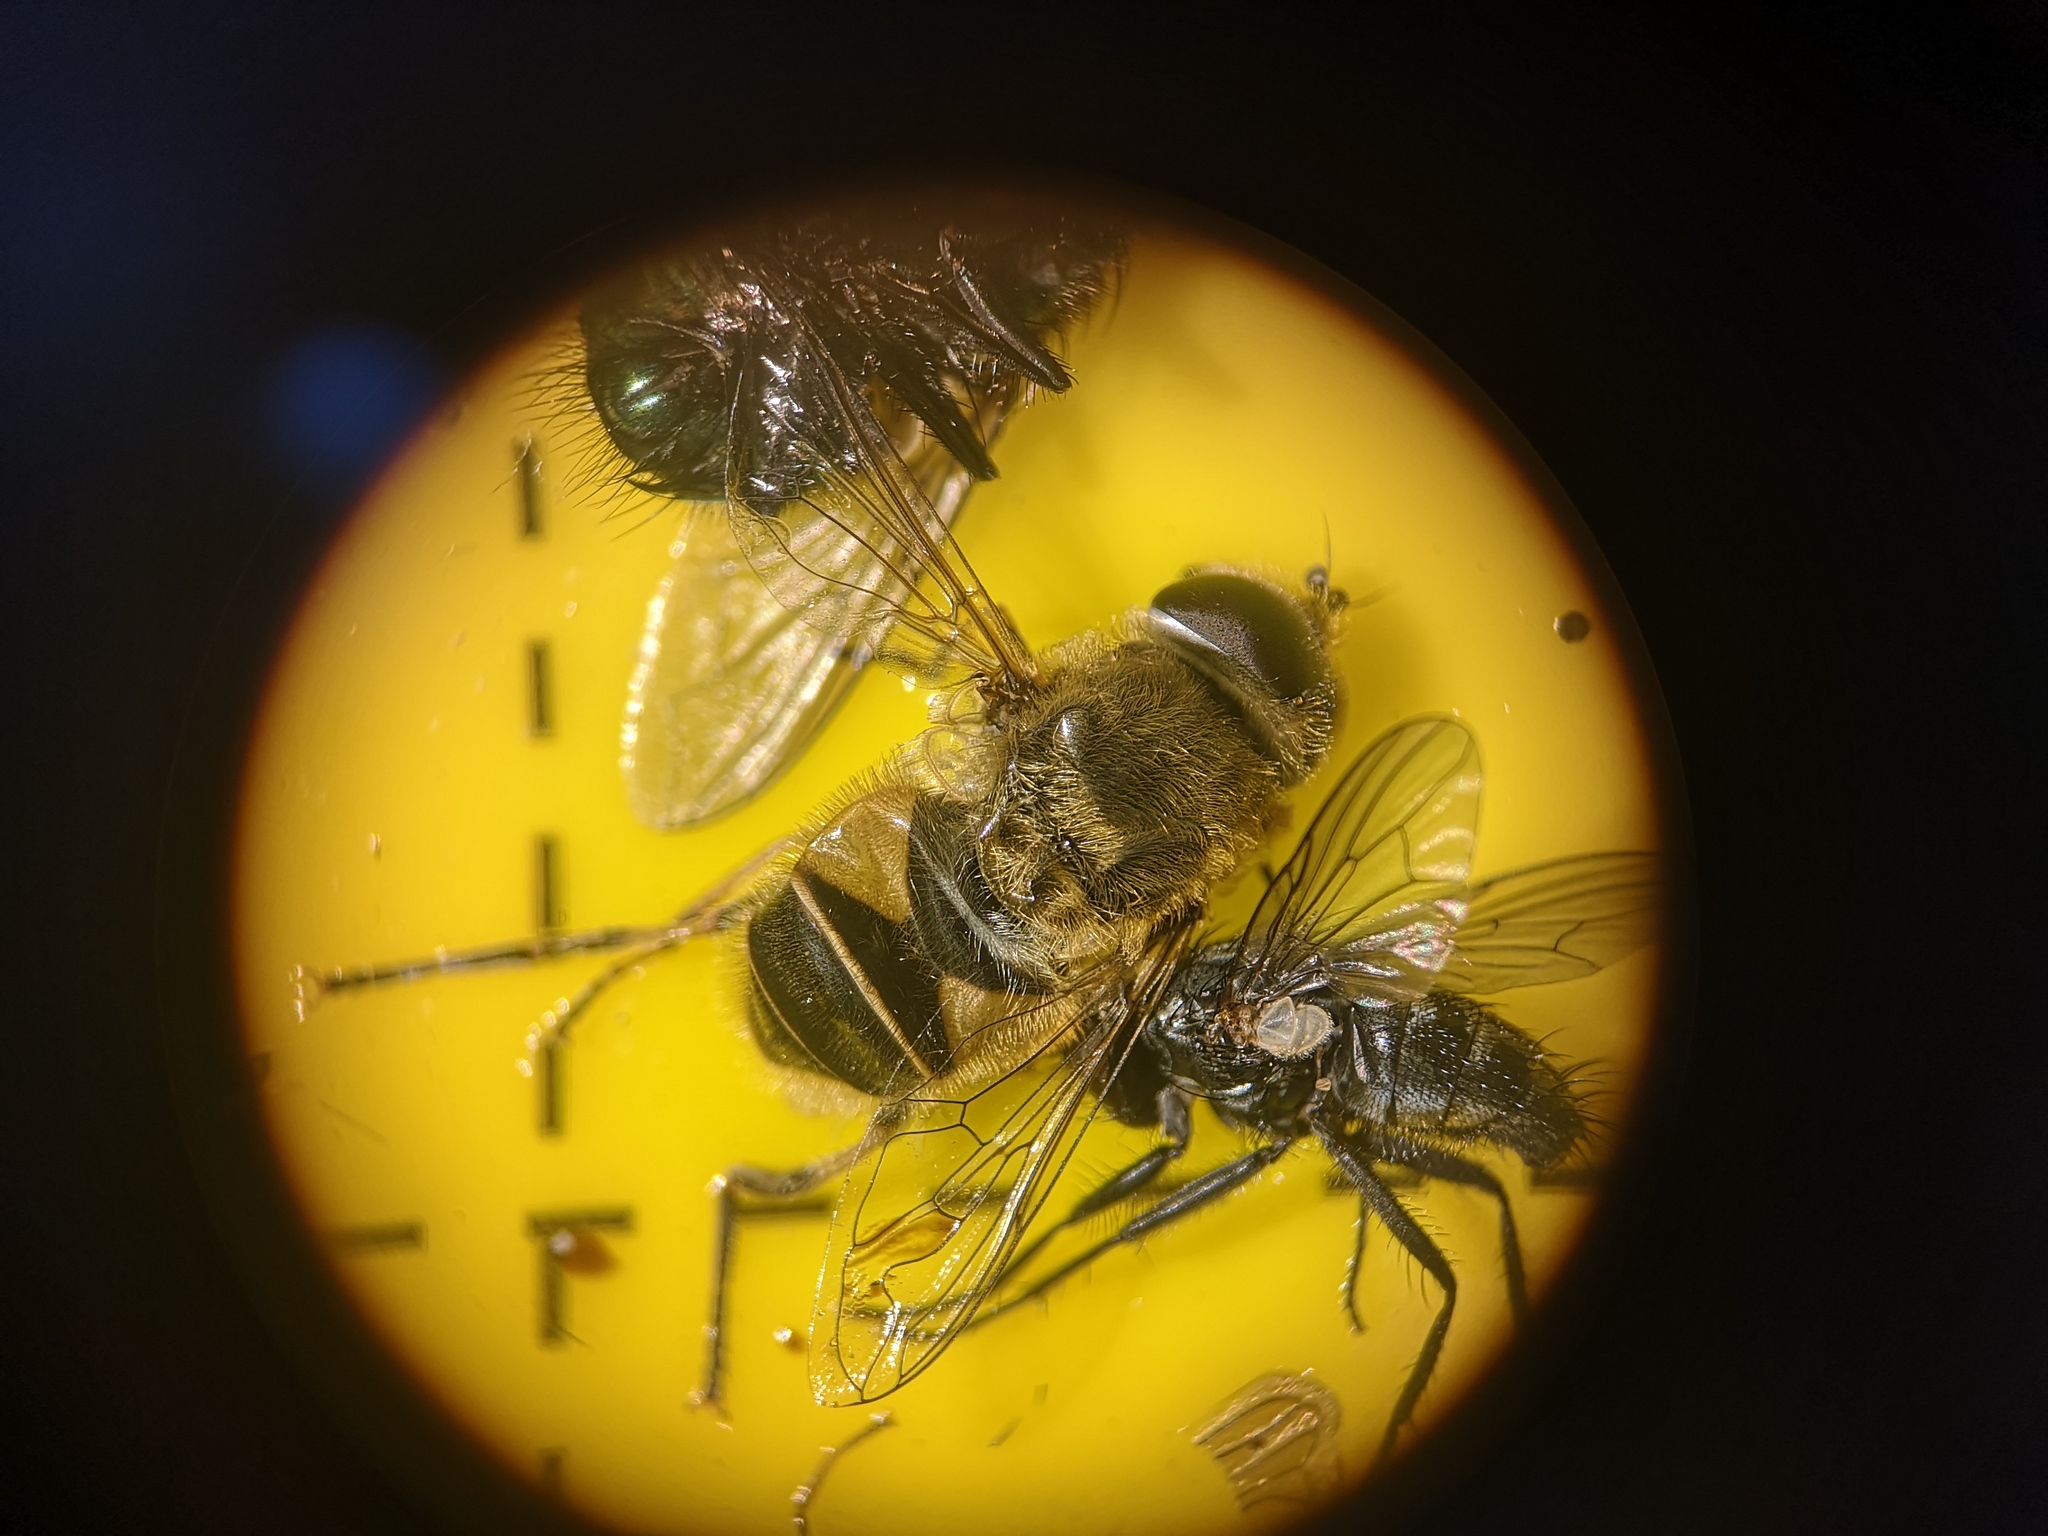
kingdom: Animalia
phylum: Arthropoda
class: Insecta
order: Diptera
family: Syrphidae
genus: Eristalis
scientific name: Eristalis nemorum
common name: Orange-spined drone fly
